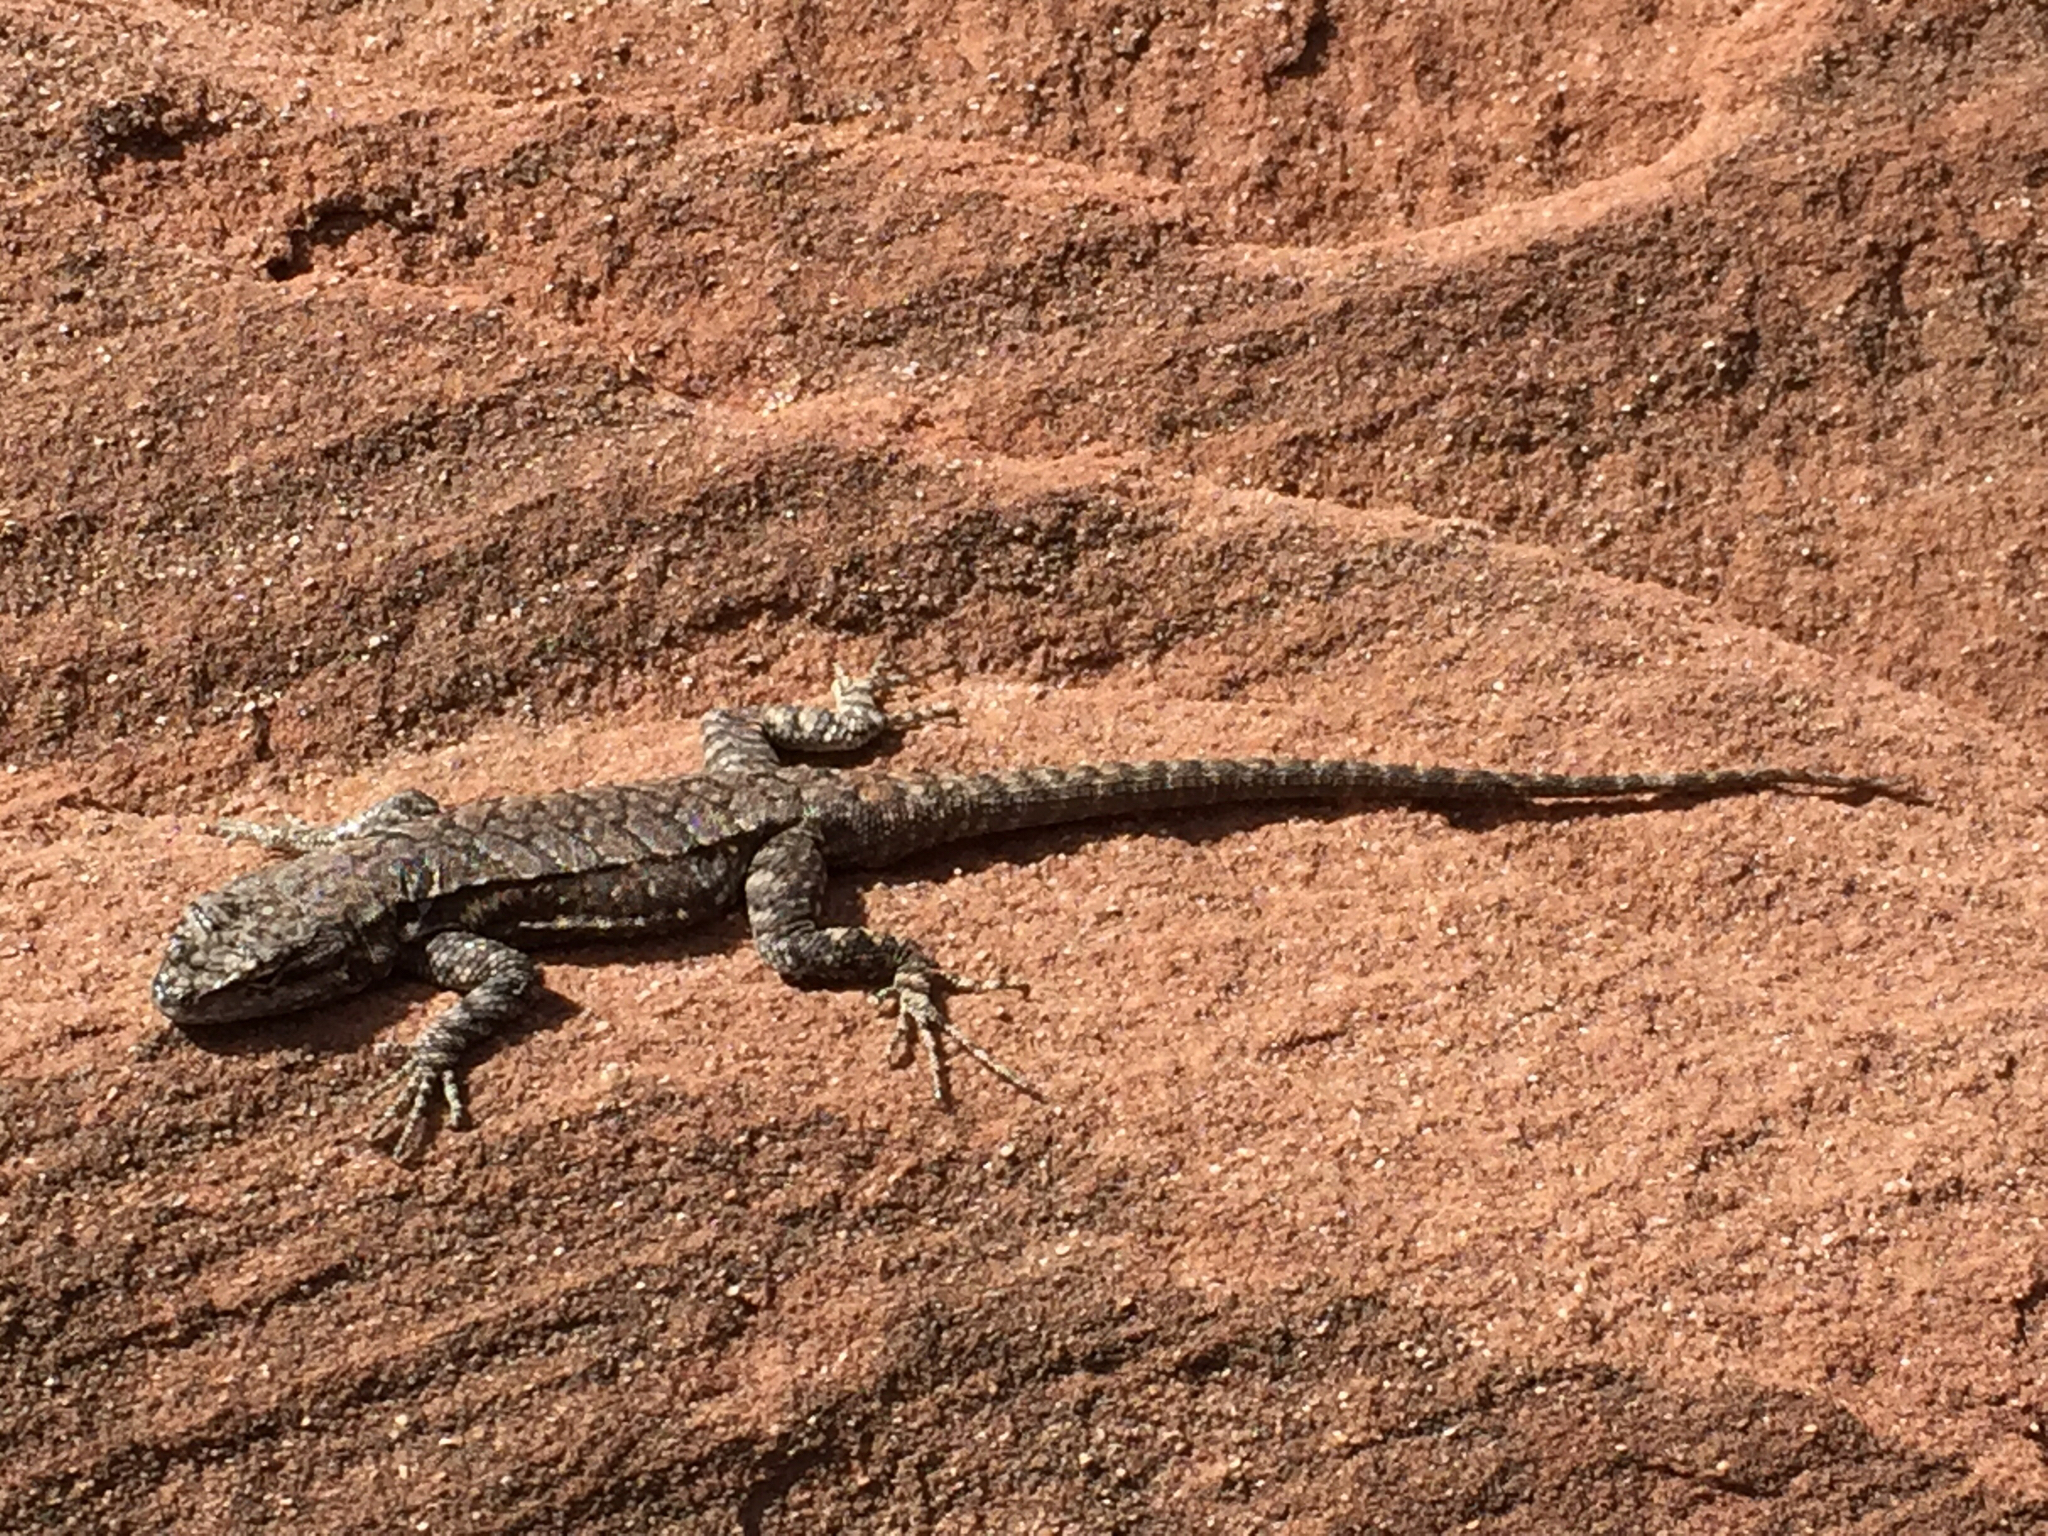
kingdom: Animalia
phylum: Chordata
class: Squamata
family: Phrynosomatidae
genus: Urosaurus
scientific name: Urosaurus ornatus
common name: Ornate tree lizard
